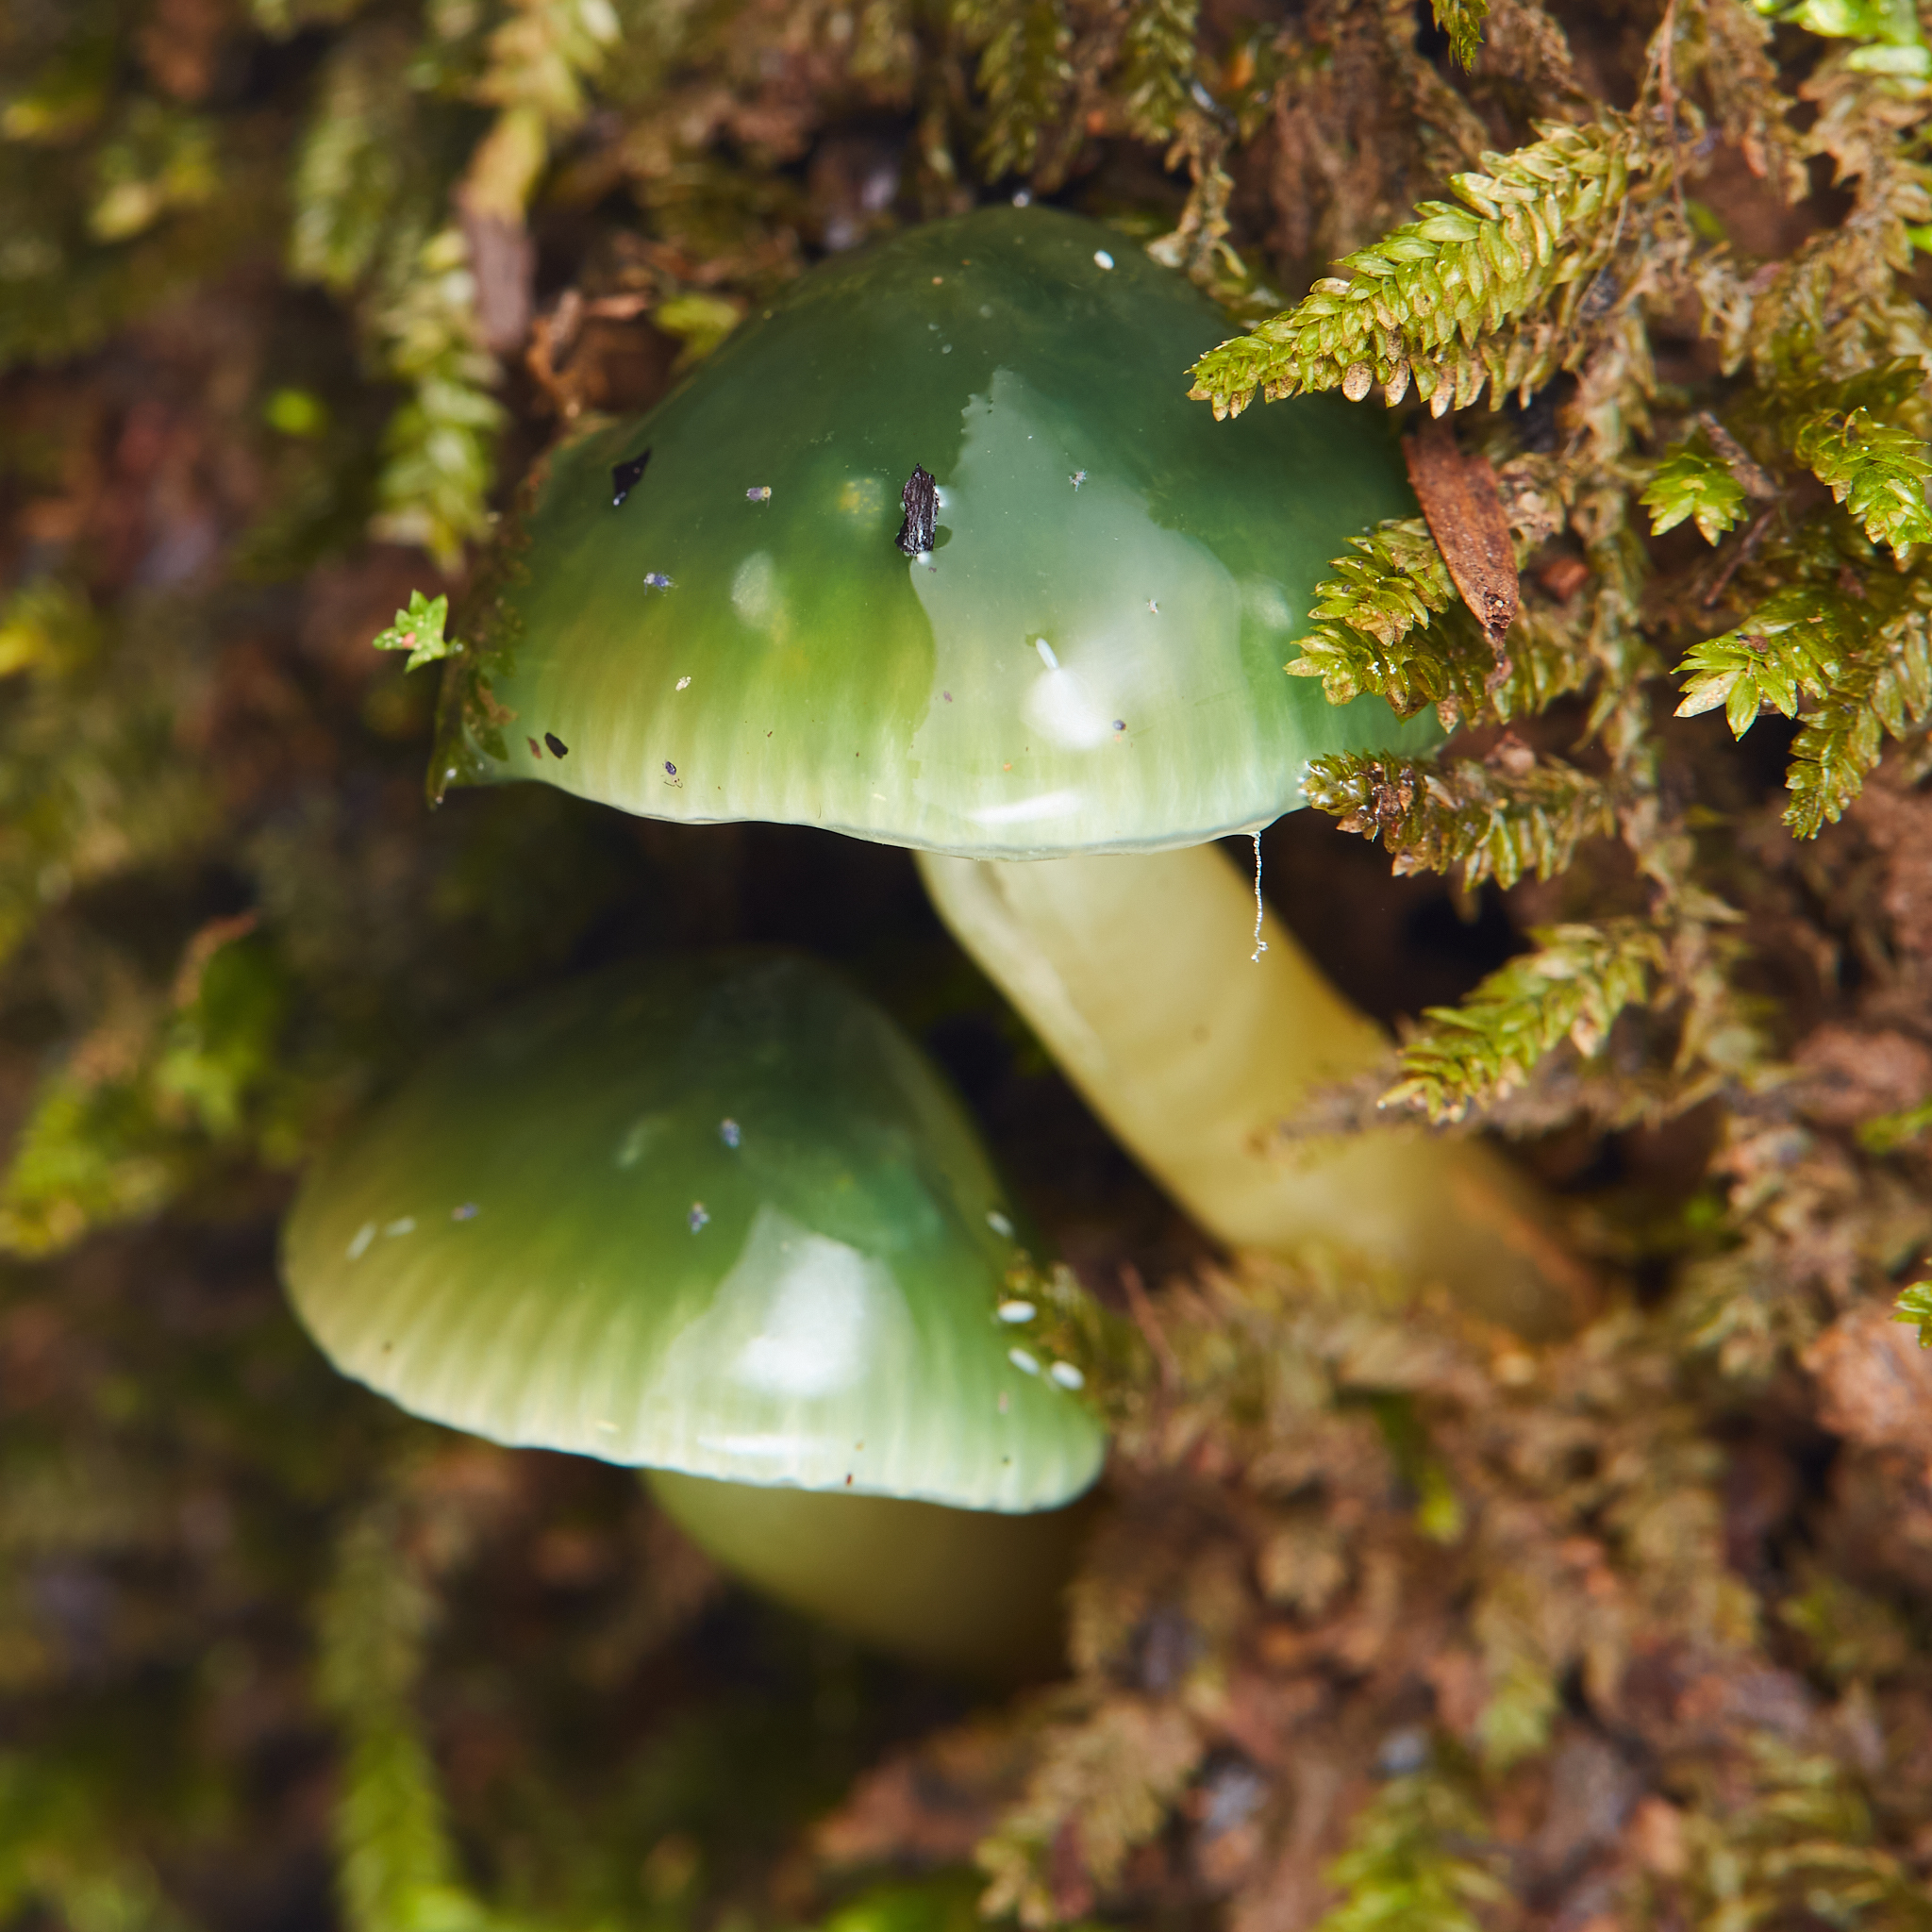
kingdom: Fungi
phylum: Basidiomycota
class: Agaricomycetes
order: Agaricales
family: Hygrophoraceae
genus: Gliophorus
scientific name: Gliophorus psittacinus
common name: Parrot wax-cap
